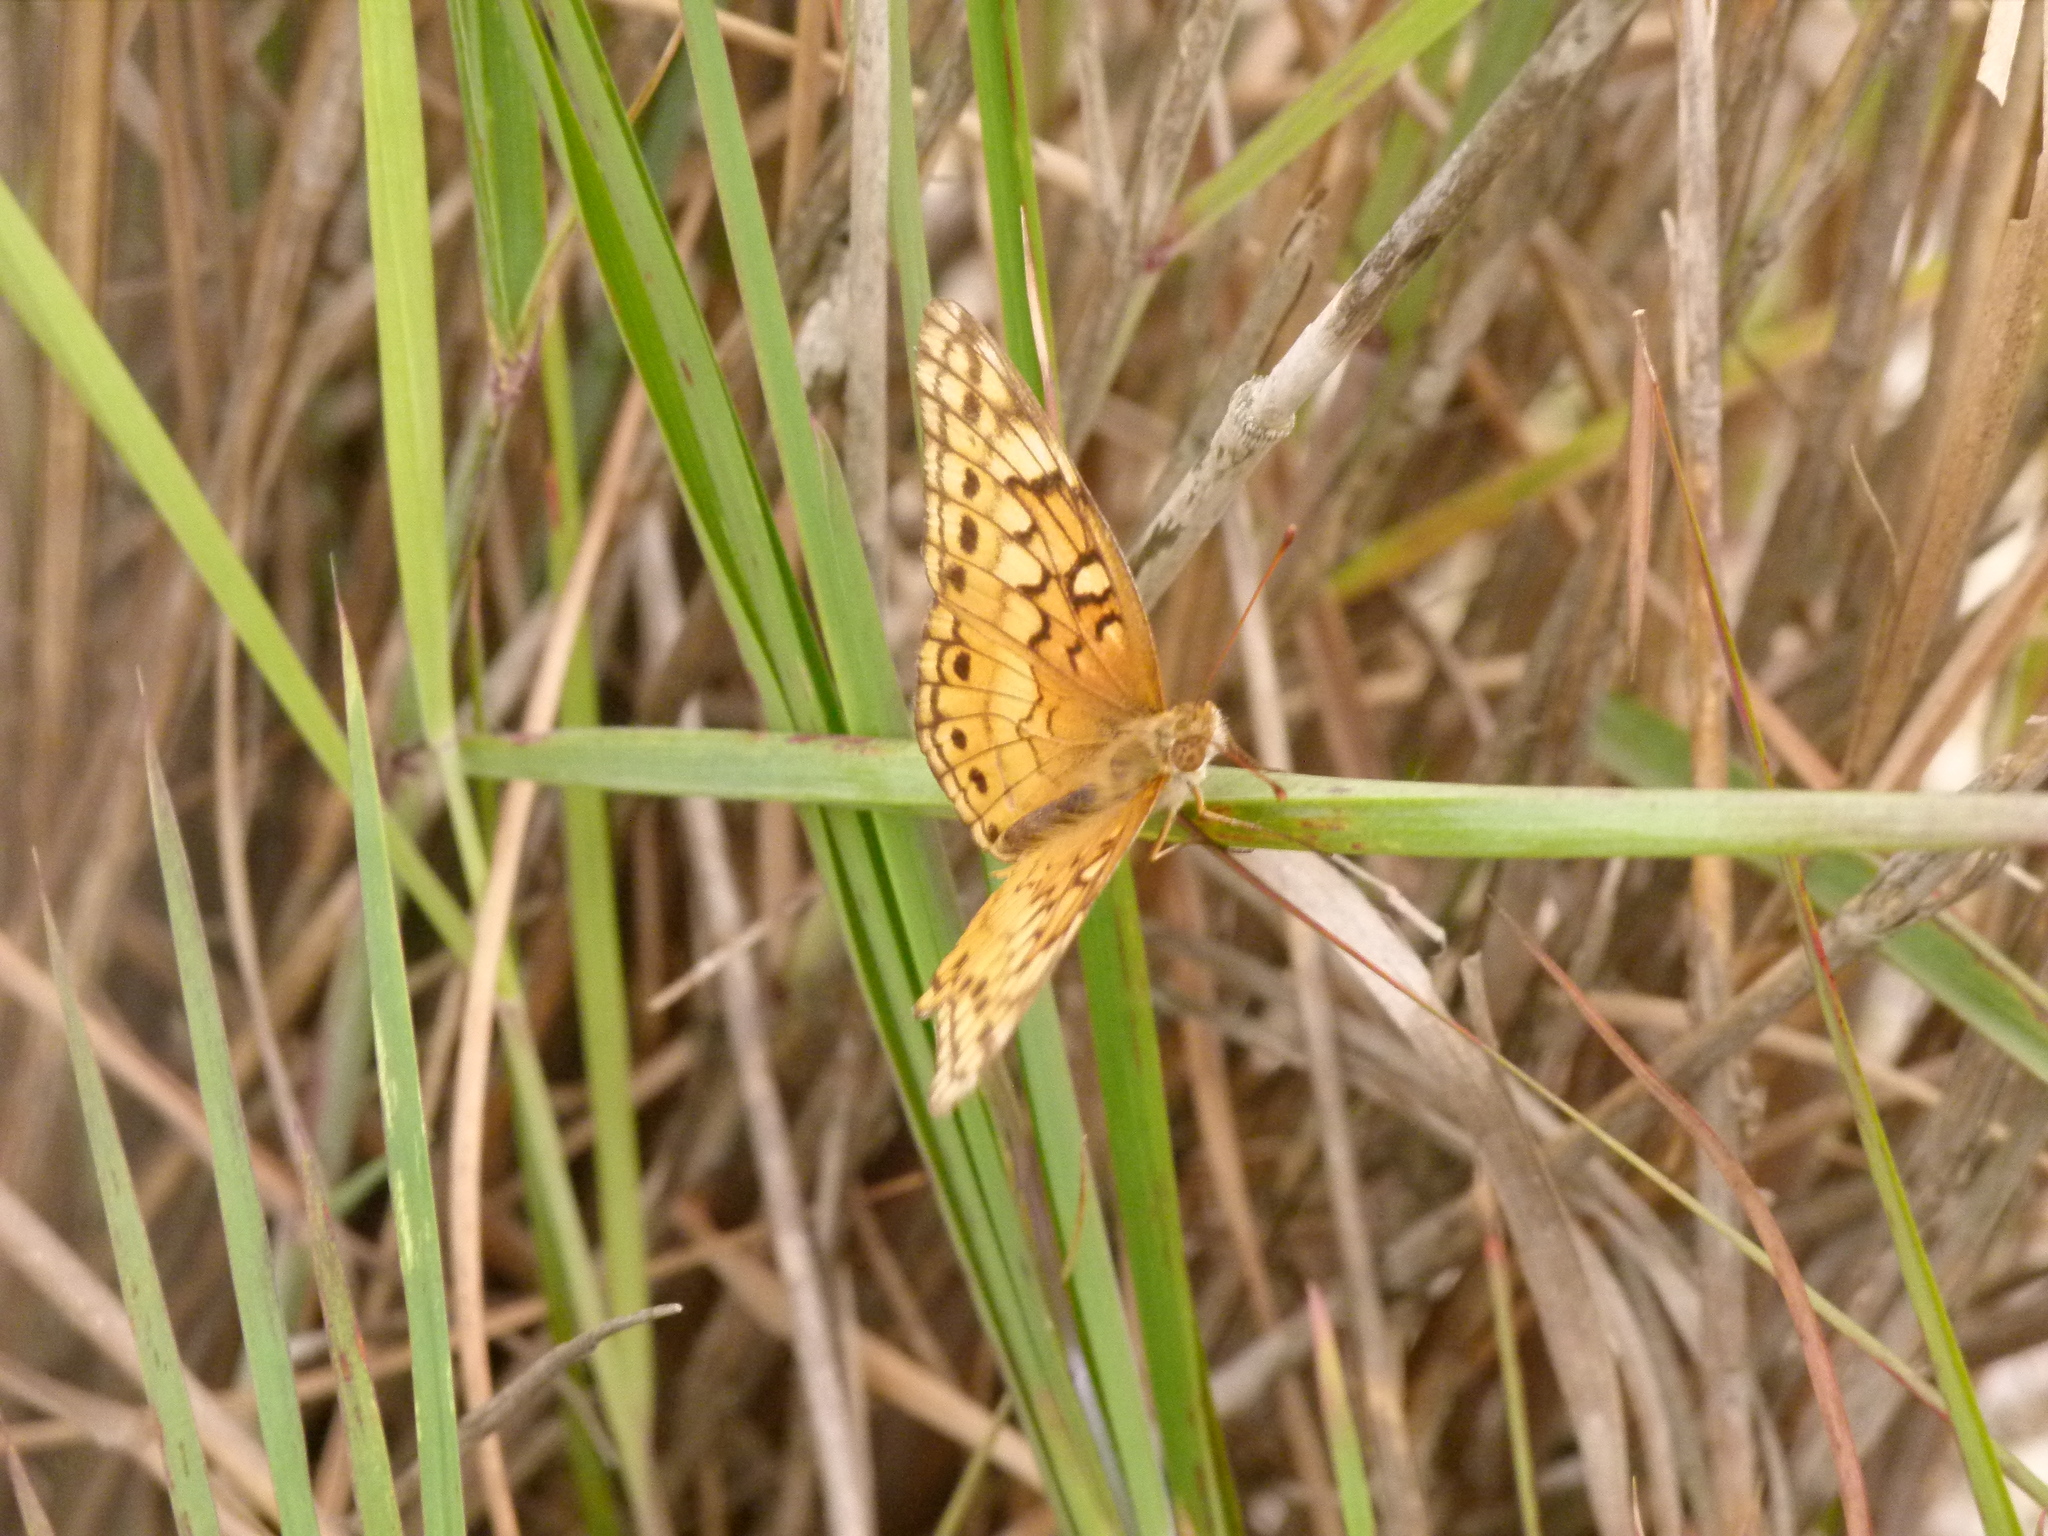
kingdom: Animalia
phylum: Arthropoda
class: Insecta
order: Lepidoptera
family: Nymphalidae
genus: Euptoieta
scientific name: Euptoieta claudia
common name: Variegated fritillary
